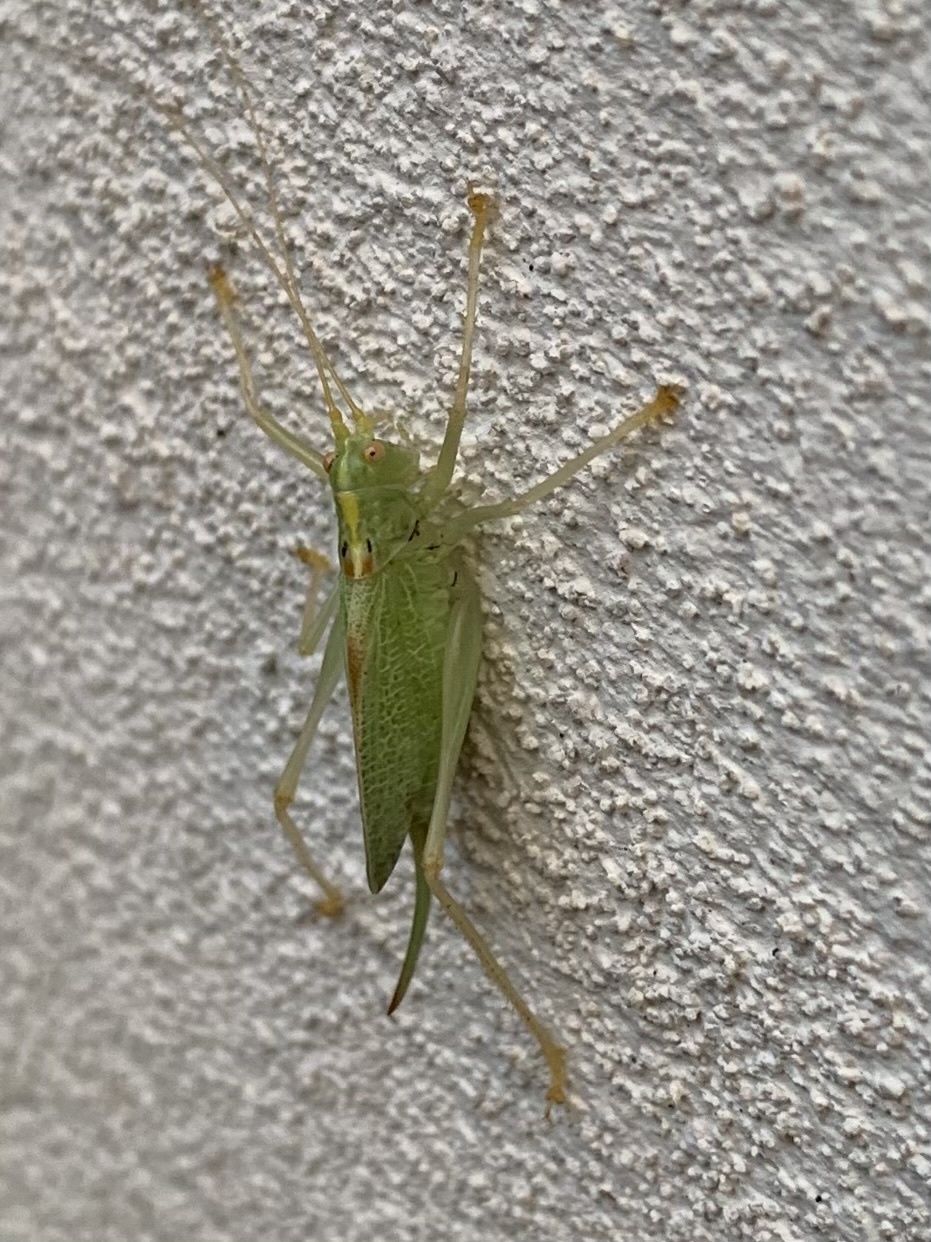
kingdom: Animalia
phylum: Arthropoda
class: Insecta
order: Orthoptera
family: Tettigoniidae
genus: Meconema
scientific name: Meconema thalassinum
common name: Oak bush-cricket
